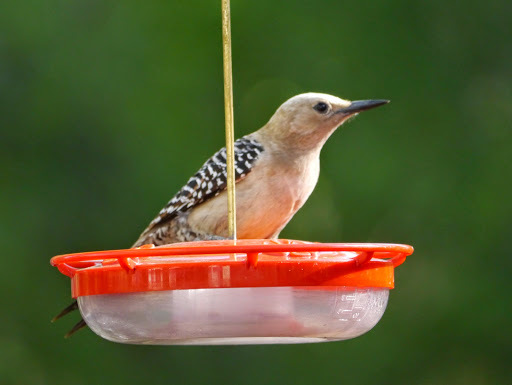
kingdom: Animalia
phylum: Chordata
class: Aves
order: Piciformes
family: Picidae
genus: Melanerpes
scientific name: Melanerpes uropygialis
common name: Gila woodpecker
